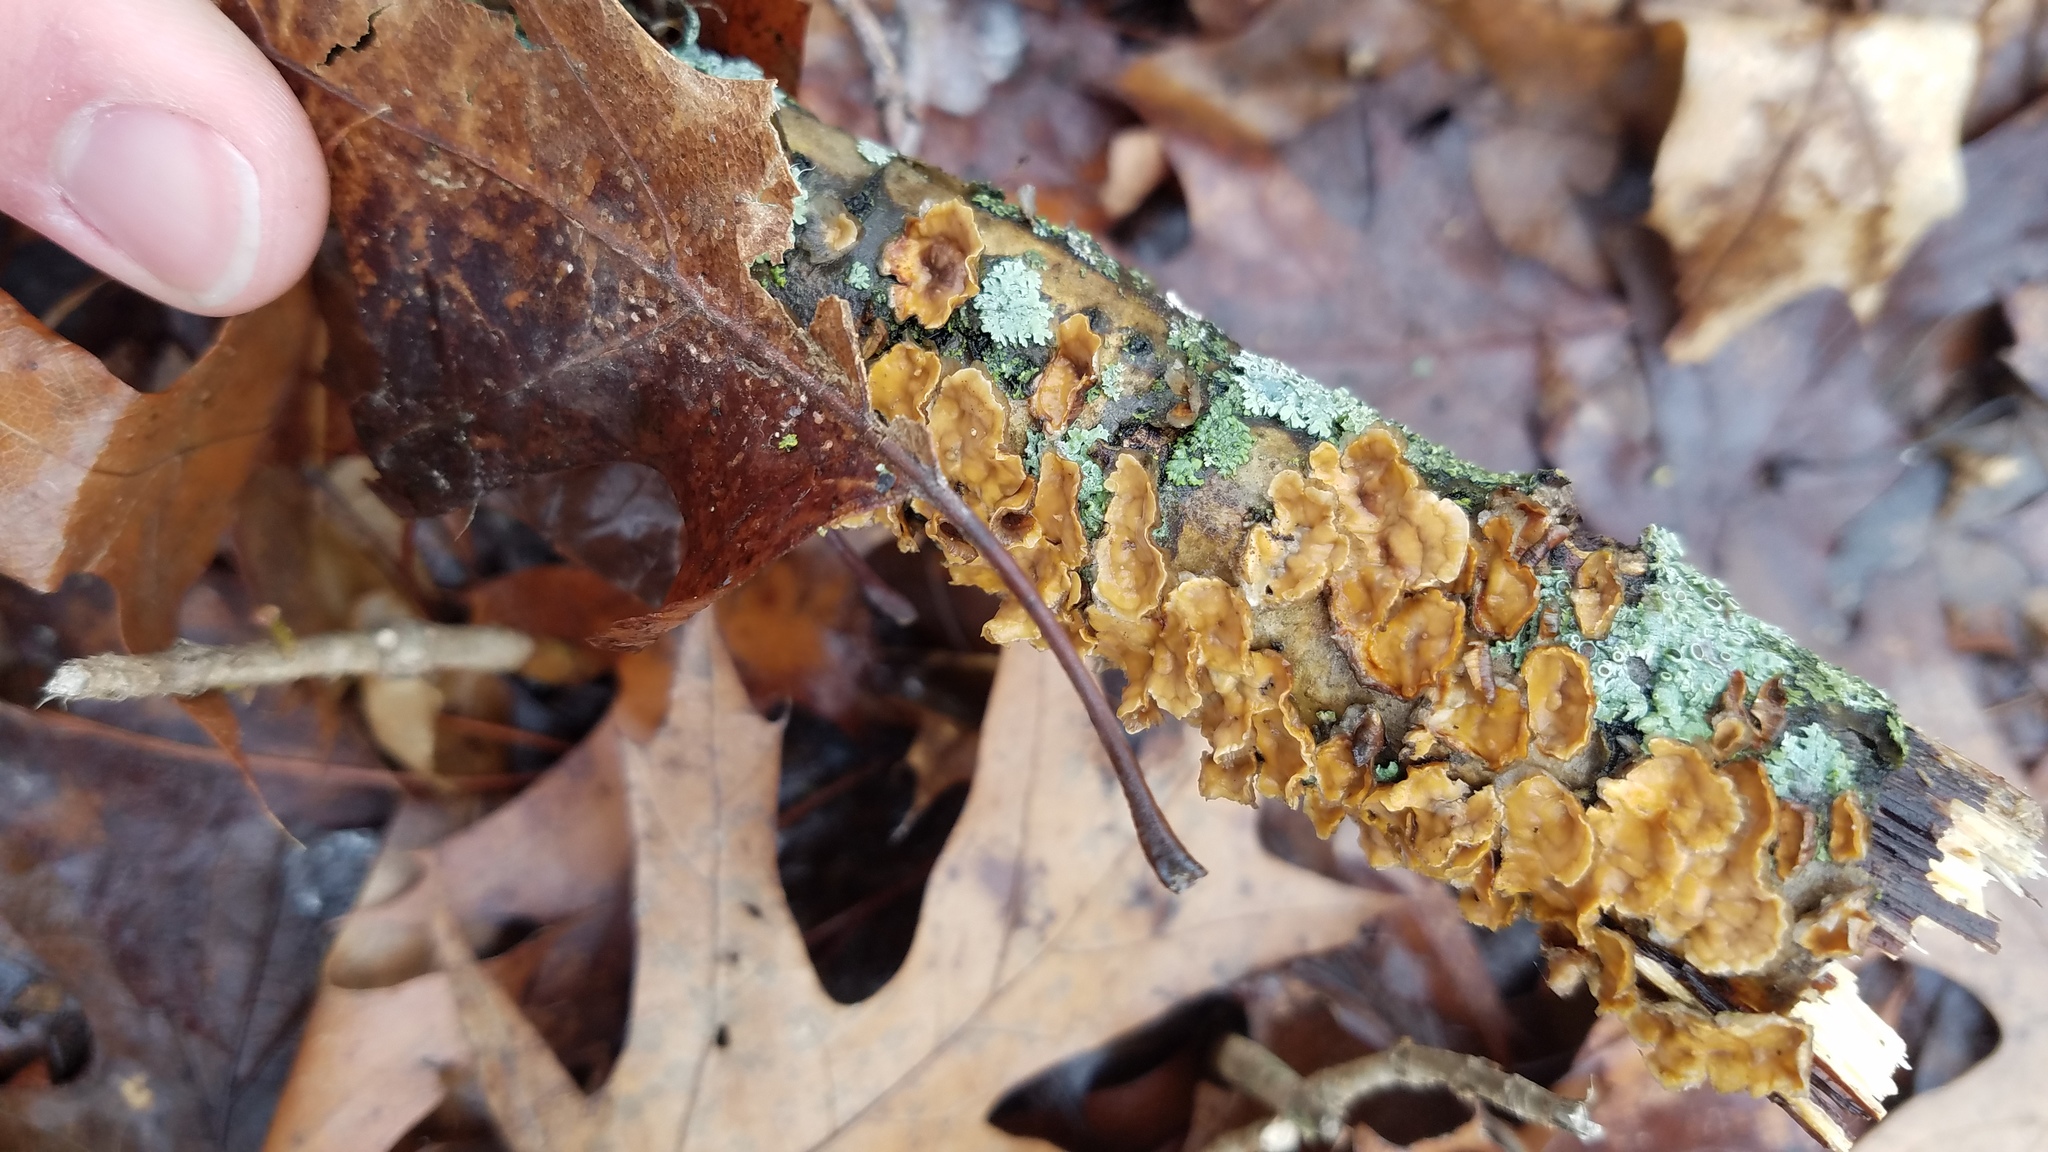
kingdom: Fungi
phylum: Basidiomycota
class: Agaricomycetes
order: Russulales
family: Stereaceae
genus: Stereum
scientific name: Stereum complicatum
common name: Crowded parchment
